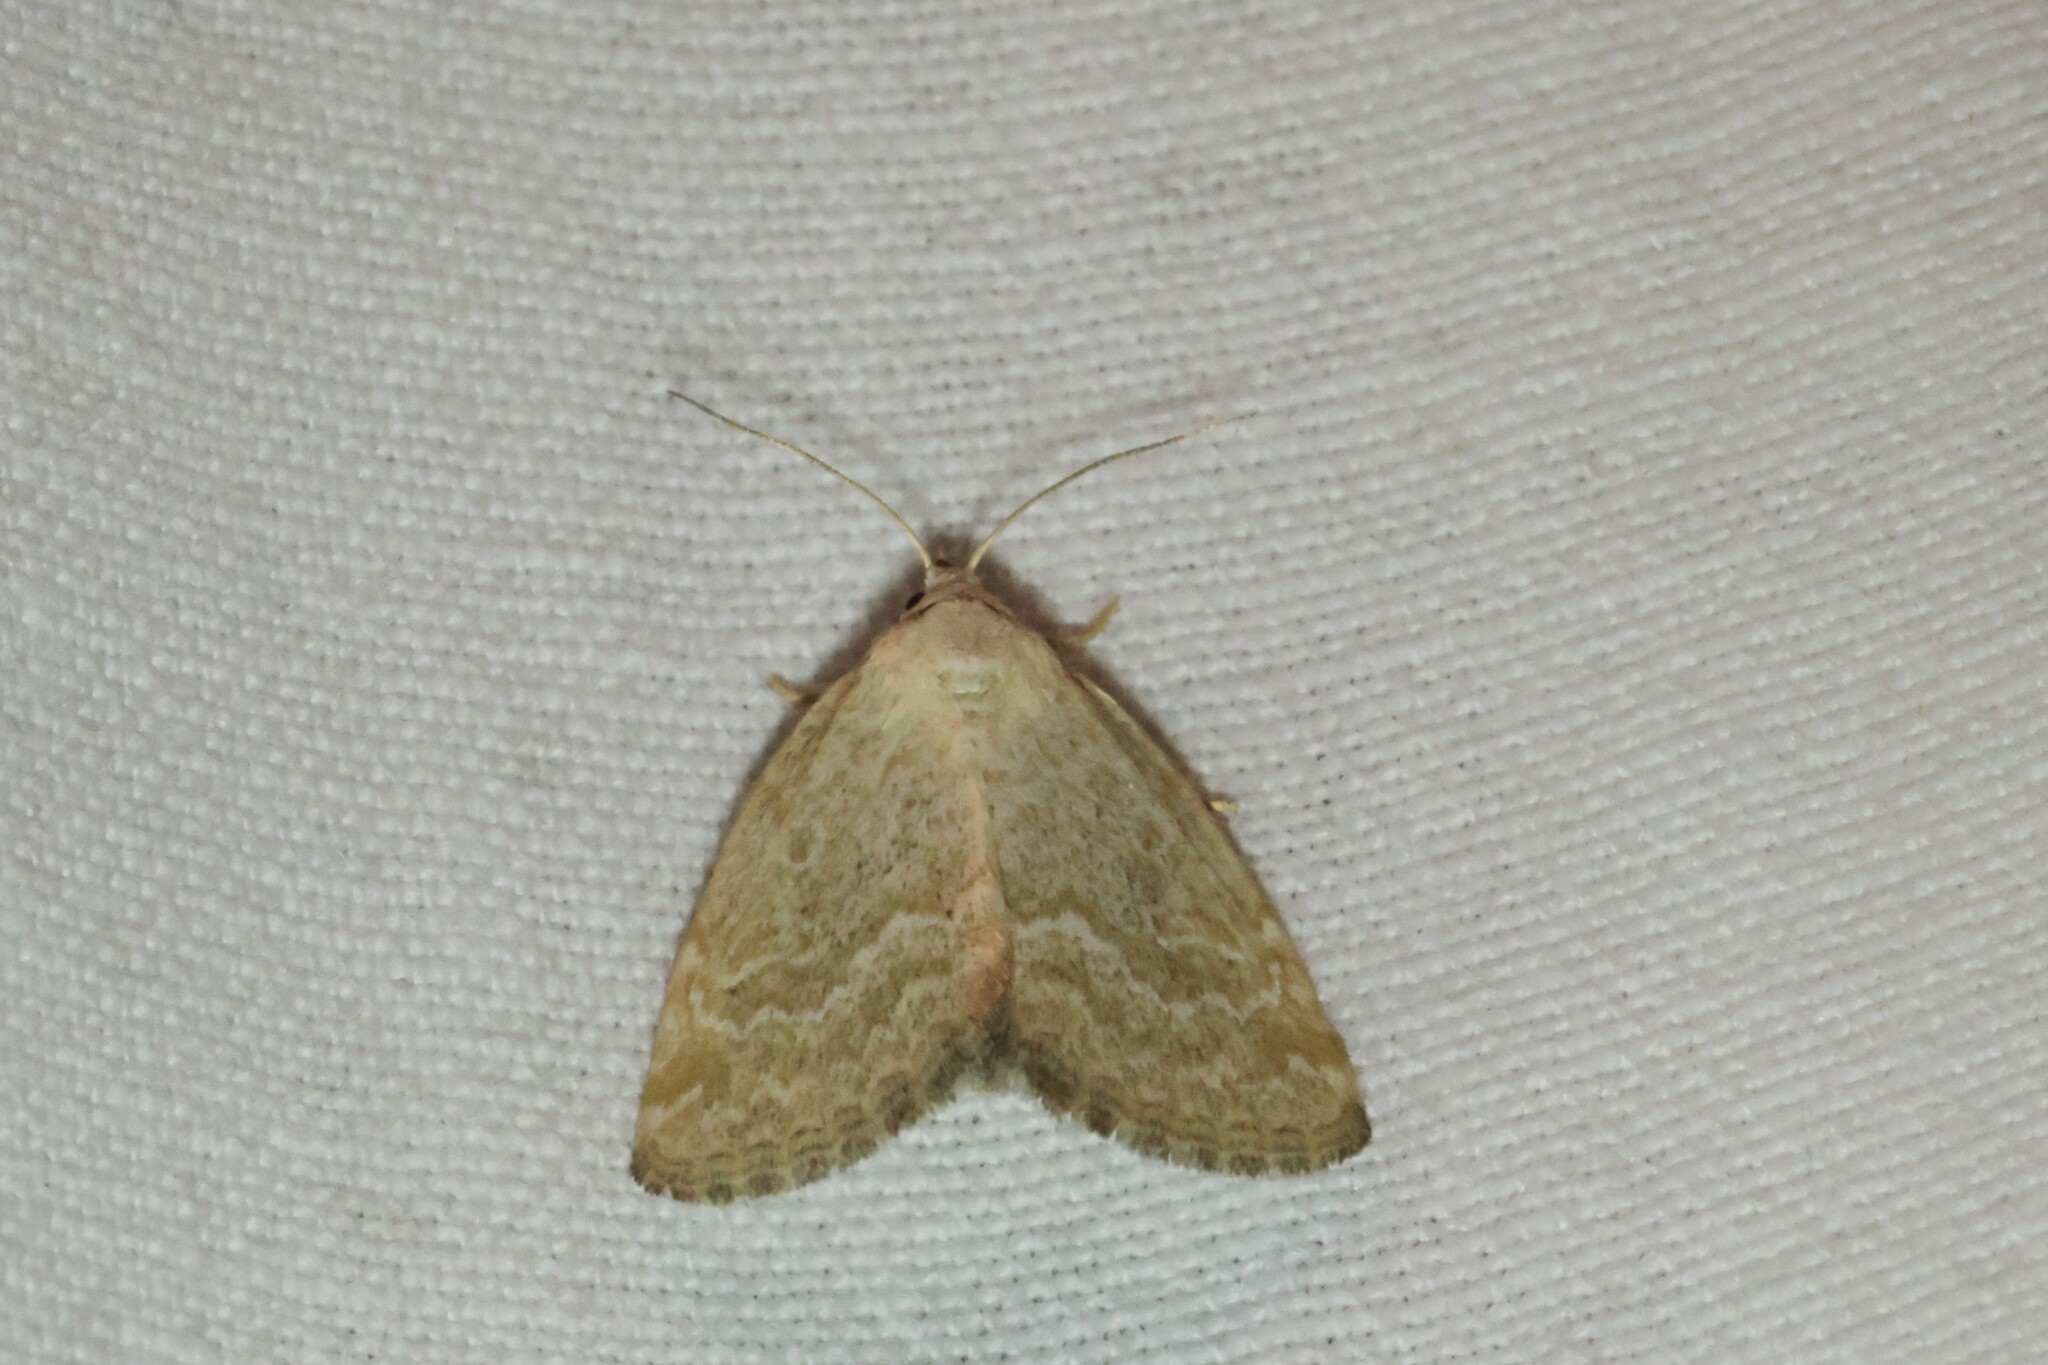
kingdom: Animalia
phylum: Arthropoda
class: Insecta
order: Lepidoptera
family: Noctuidae
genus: Protodeltote
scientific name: Protodeltote albidula
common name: Pale glyph
